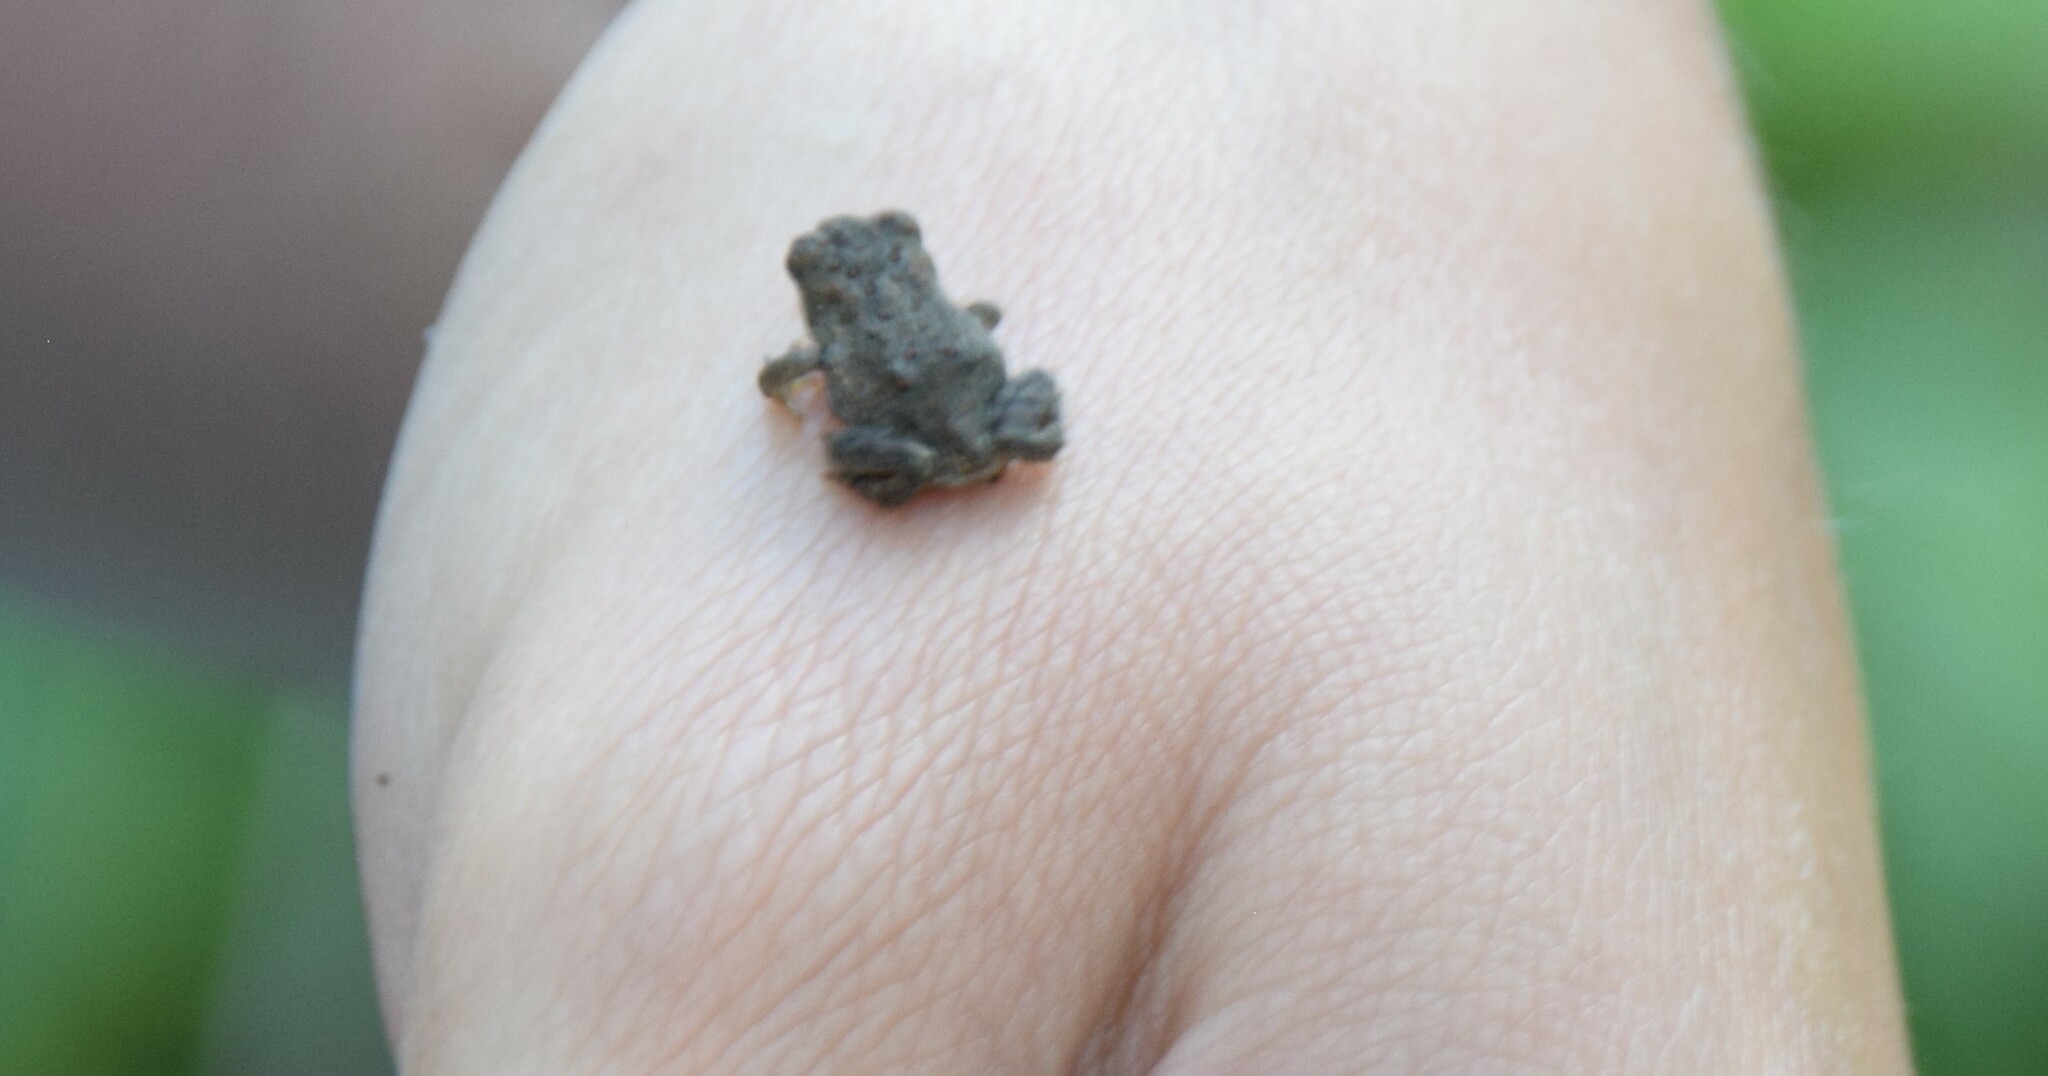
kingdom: Animalia
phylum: Chordata
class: Amphibia
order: Anura
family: Bufonidae
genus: Anaxyrus
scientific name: Anaxyrus americanus
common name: American toad
